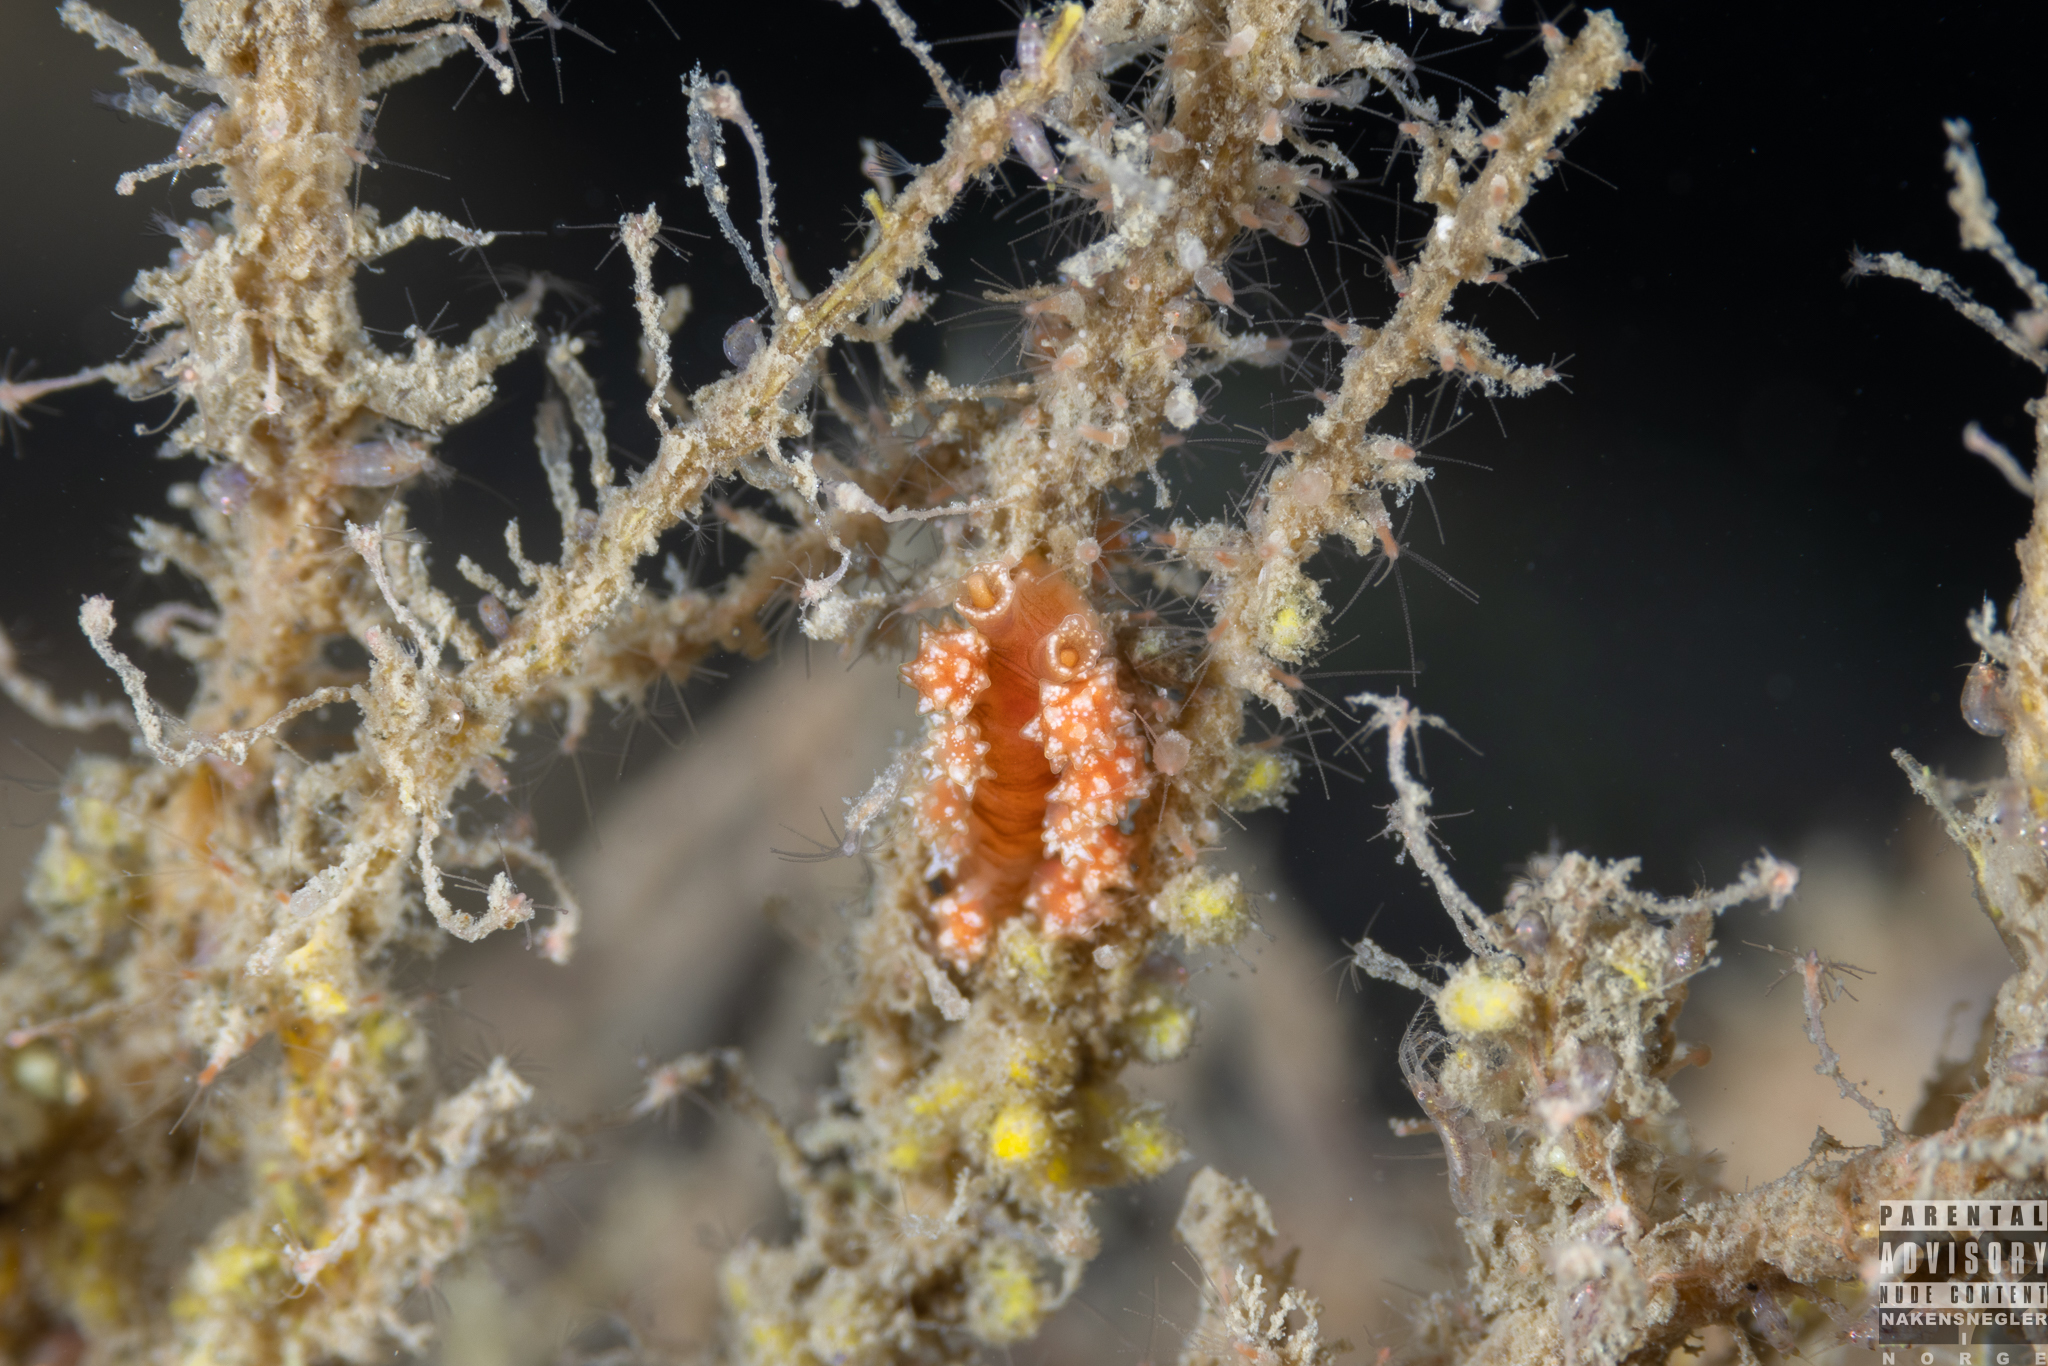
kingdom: Animalia
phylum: Mollusca
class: Gastropoda
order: Nudibranchia
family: Dotidae
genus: Doto
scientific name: Doto fragilis
